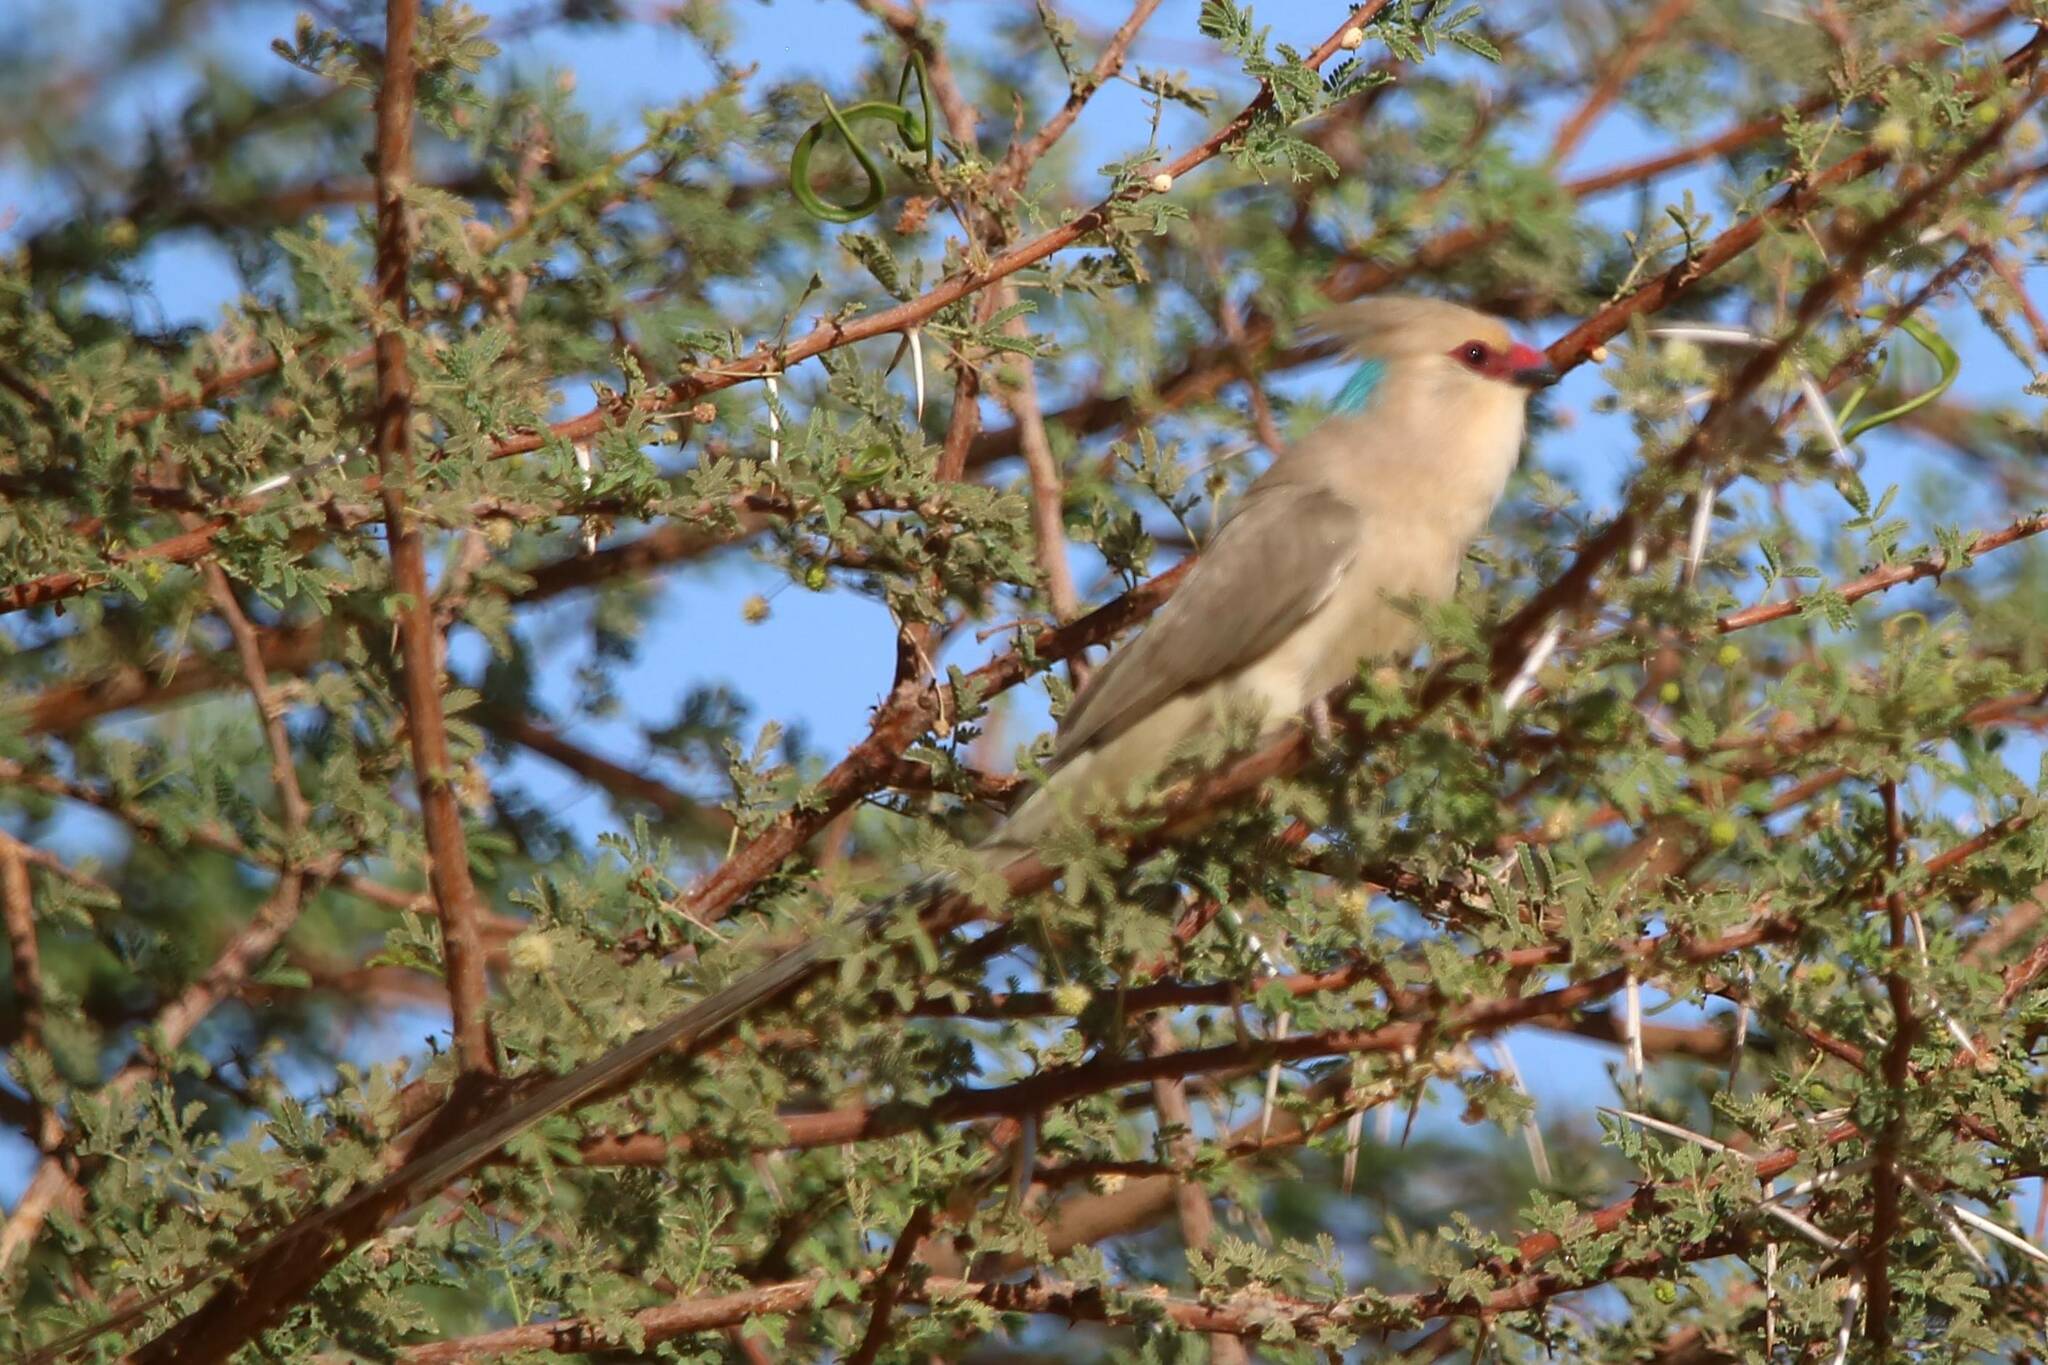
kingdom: Animalia
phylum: Chordata
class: Aves
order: Coliiformes
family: Coliidae
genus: Urocolius
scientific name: Urocolius macrourus
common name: Blue-naped mousebird
